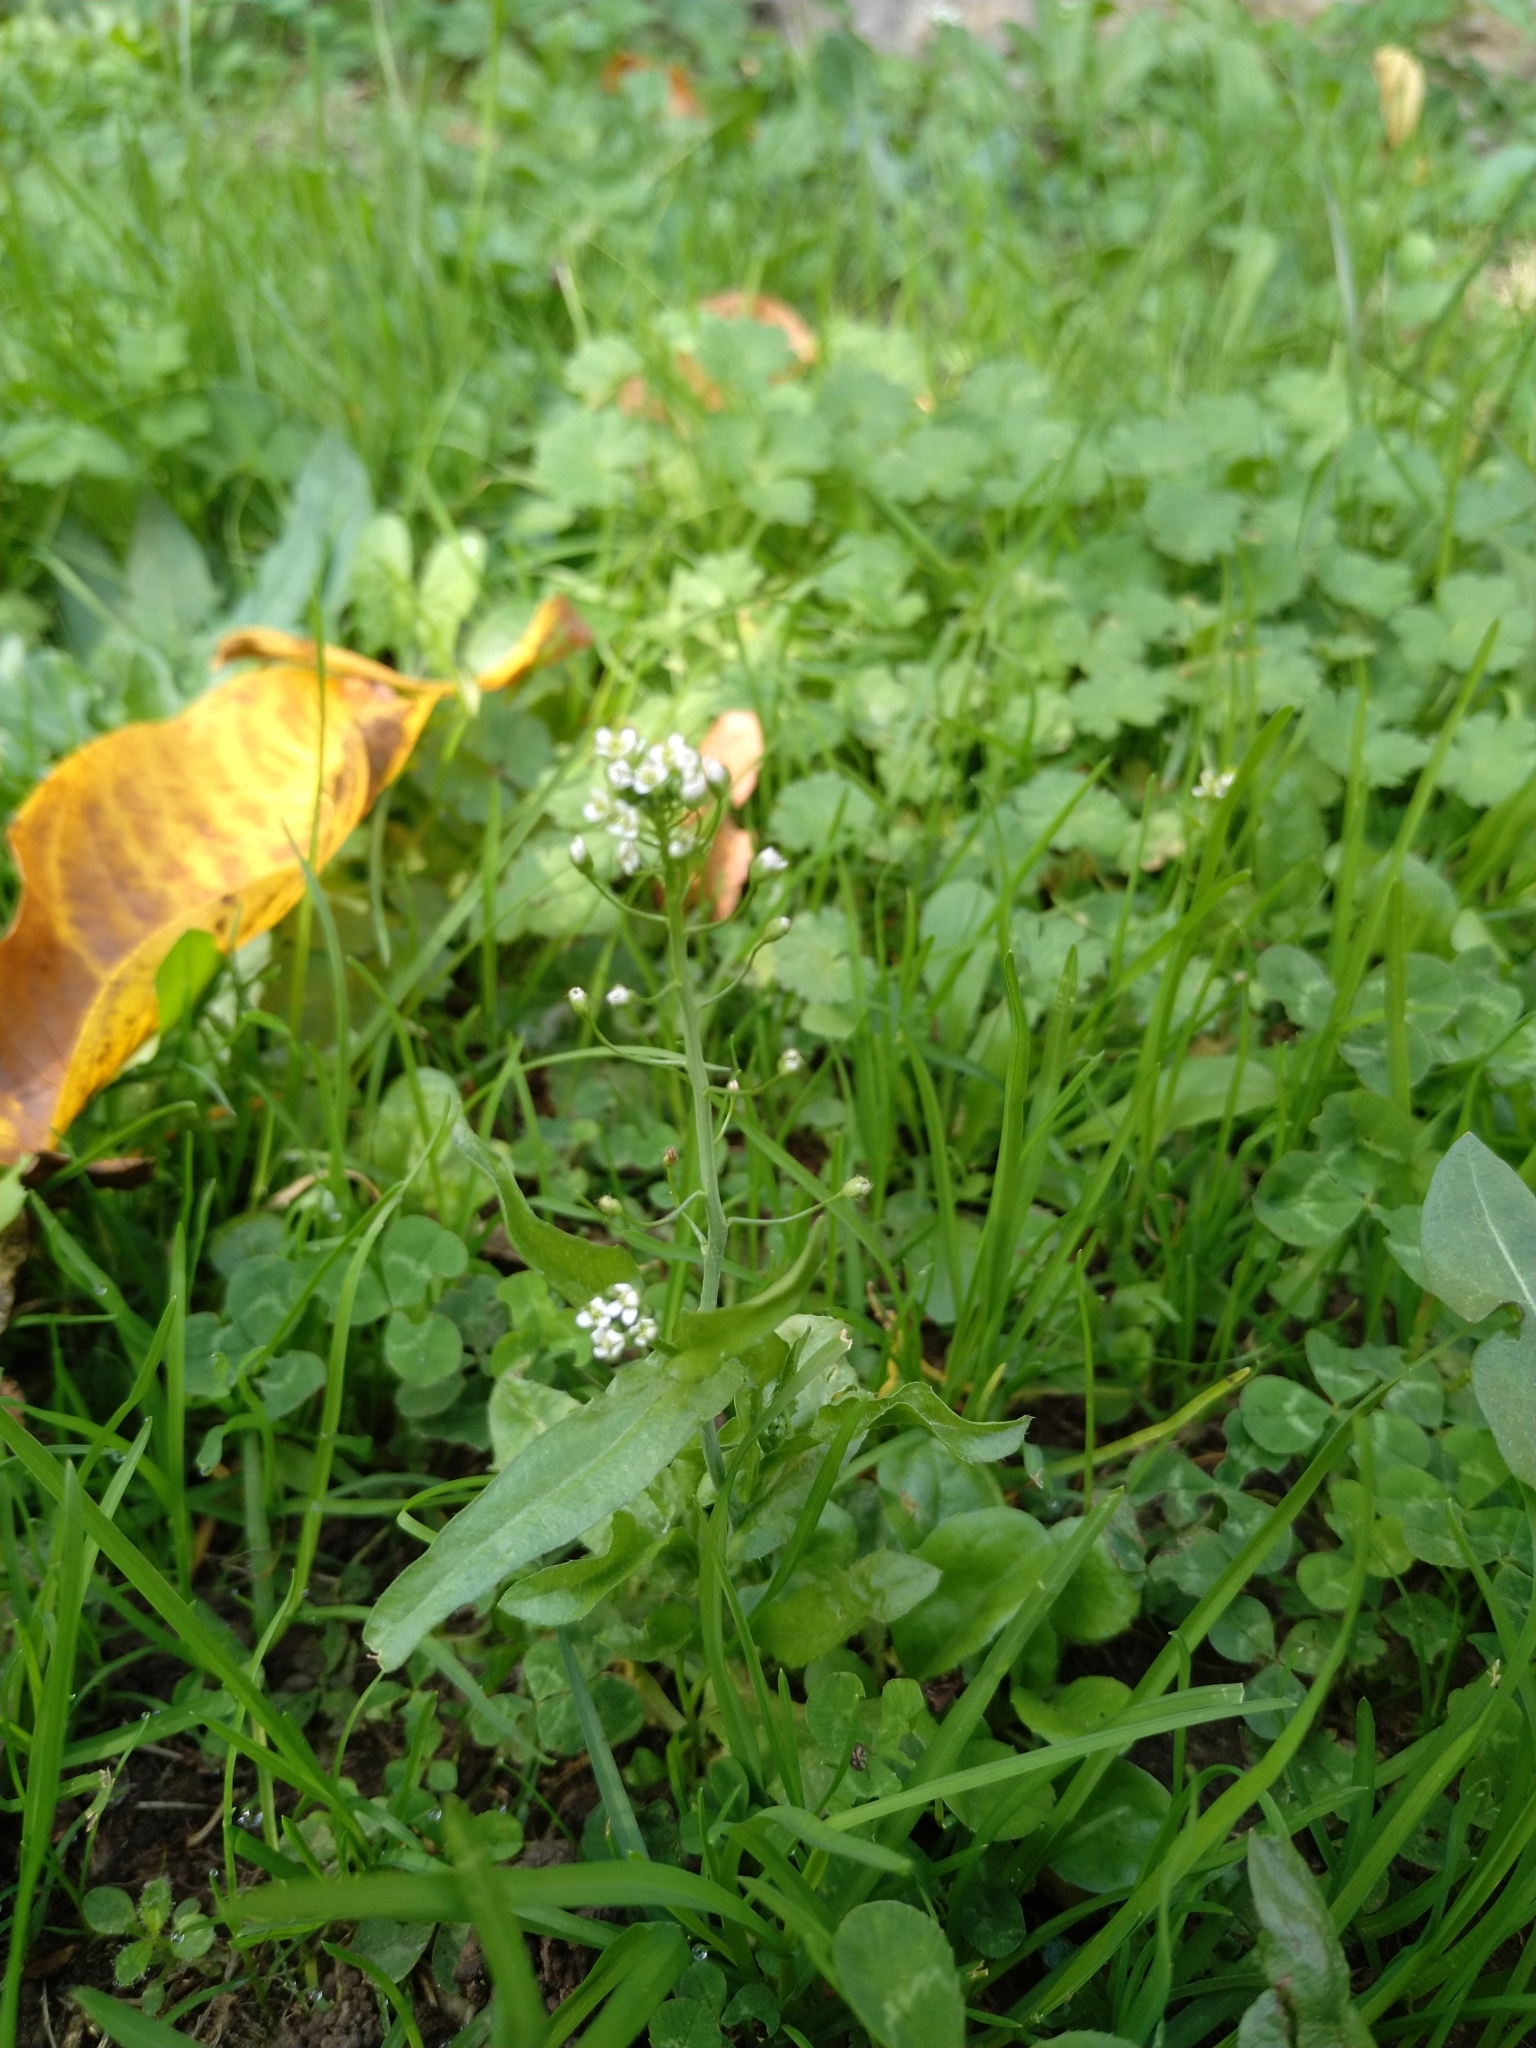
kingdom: Plantae
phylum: Tracheophyta
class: Magnoliopsida
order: Brassicales
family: Brassicaceae
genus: Capsella
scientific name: Capsella bursa-pastoris
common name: Shepherd's purse
